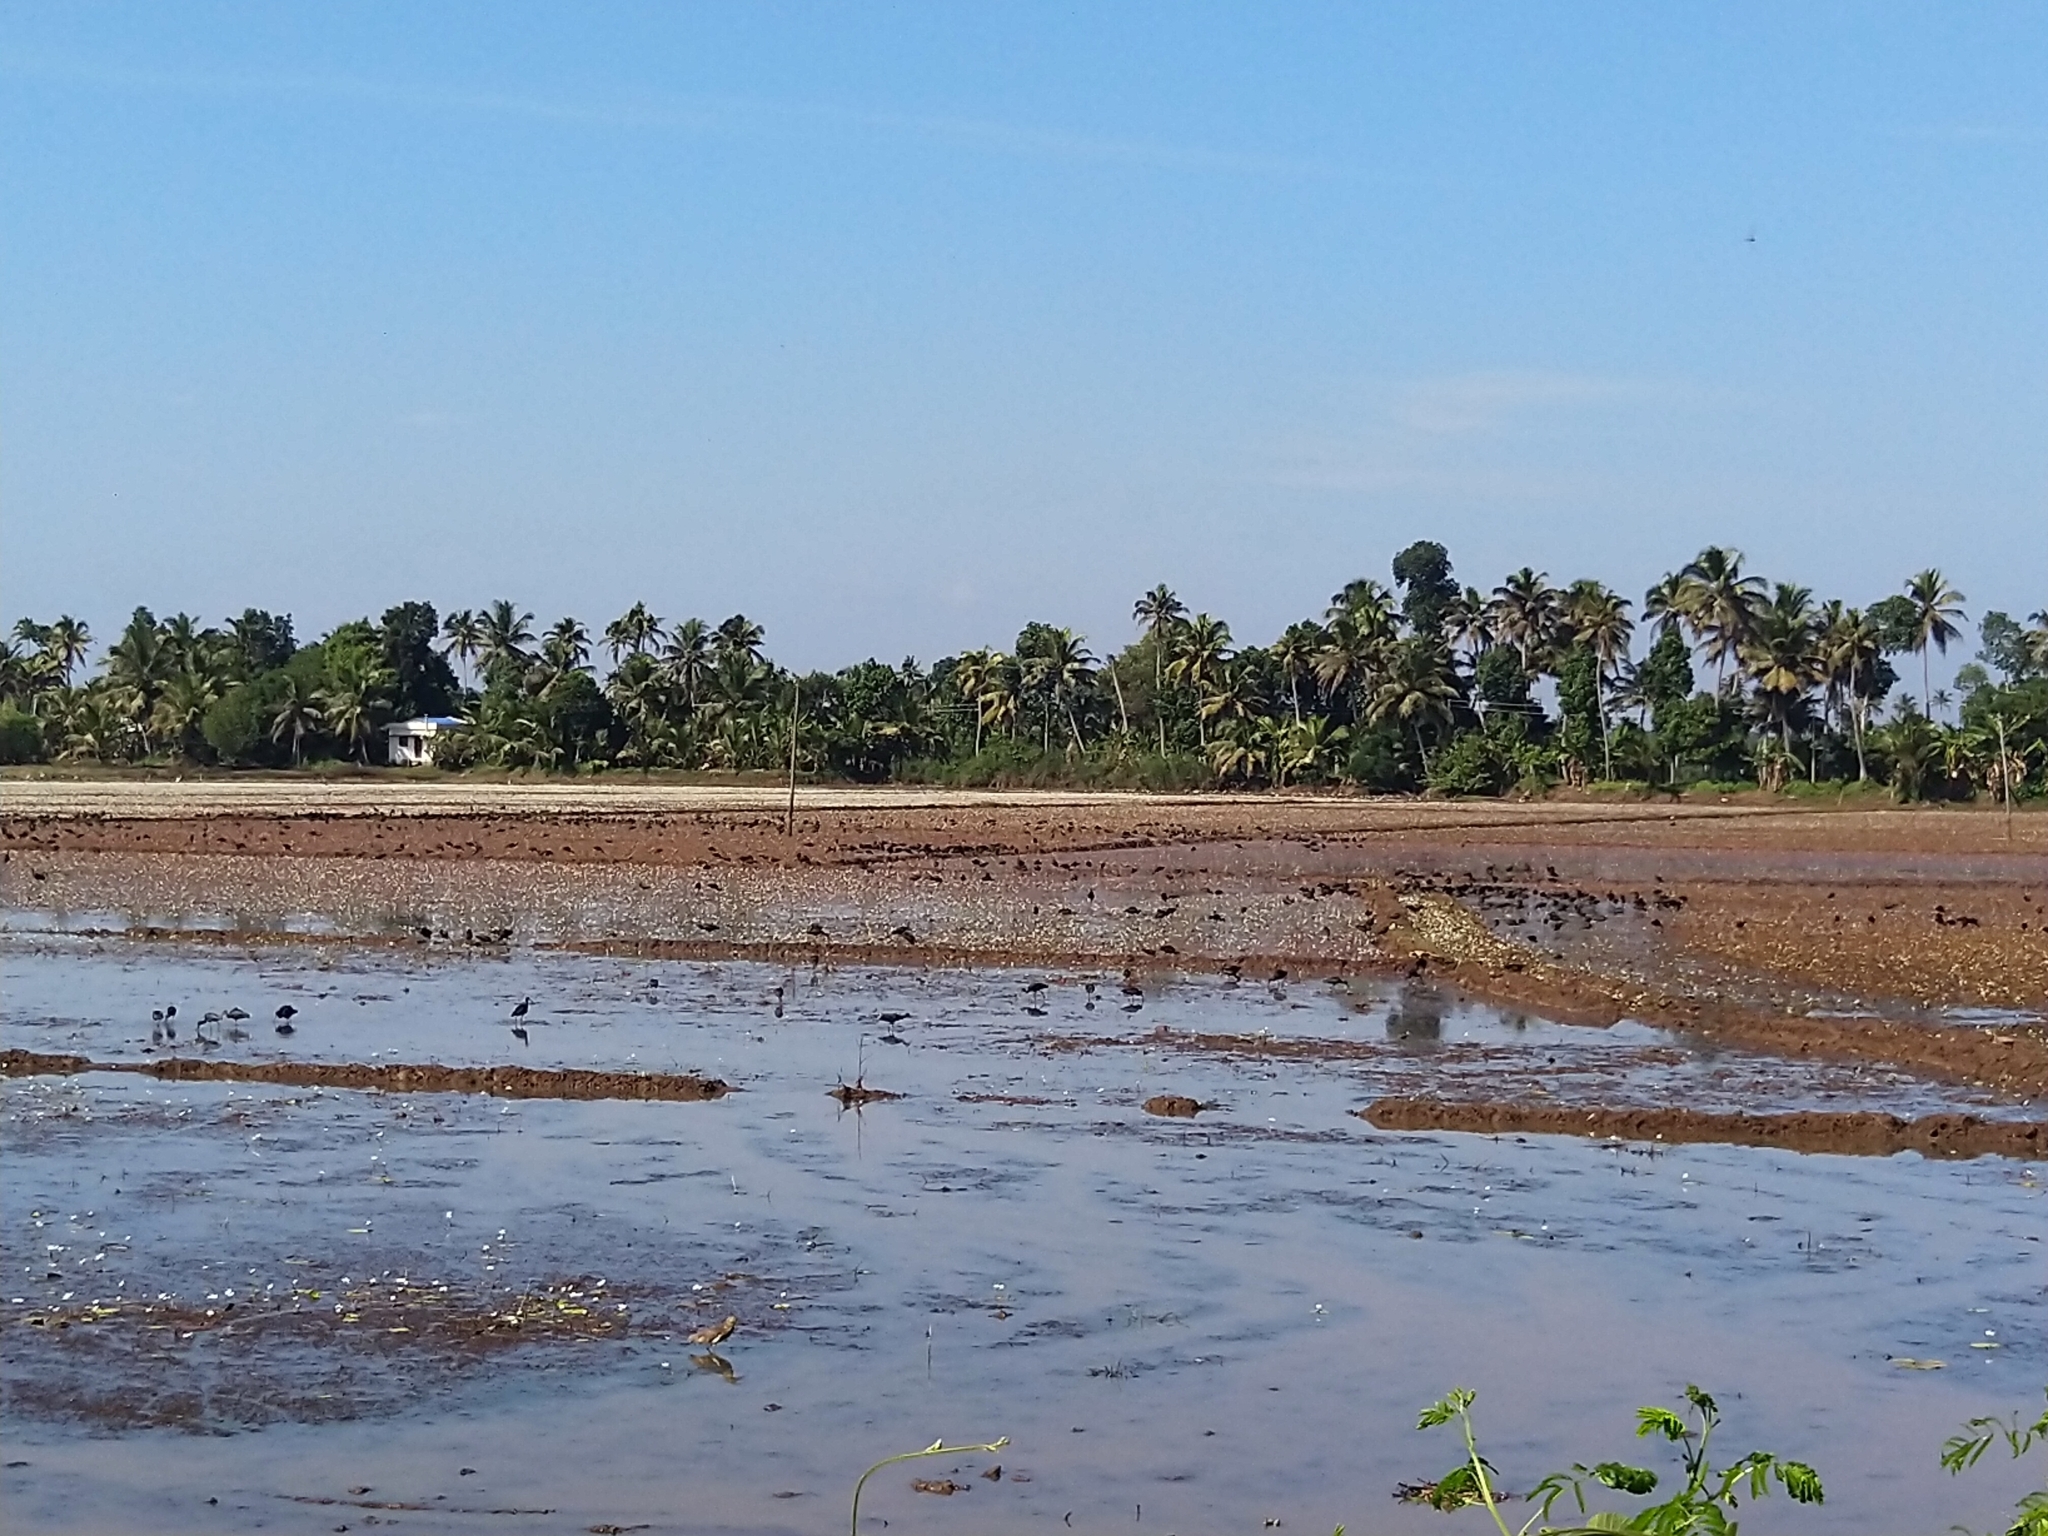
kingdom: Animalia
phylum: Chordata
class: Aves
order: Pelecaniformes
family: Threskiornithidae
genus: Plegadis
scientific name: Plegadis falcinellus
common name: Glossy ibis
